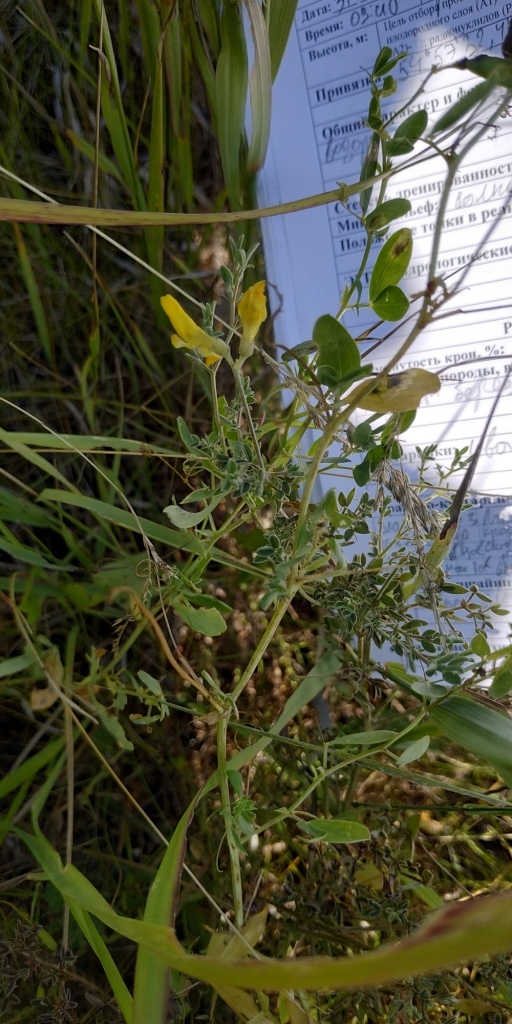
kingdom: Plantae
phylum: Tracheophyta
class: Magnoliopsida
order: Fabales
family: Fabaceae
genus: Lathyrus
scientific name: Lathyrus pratensis
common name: Meadow vetchling
